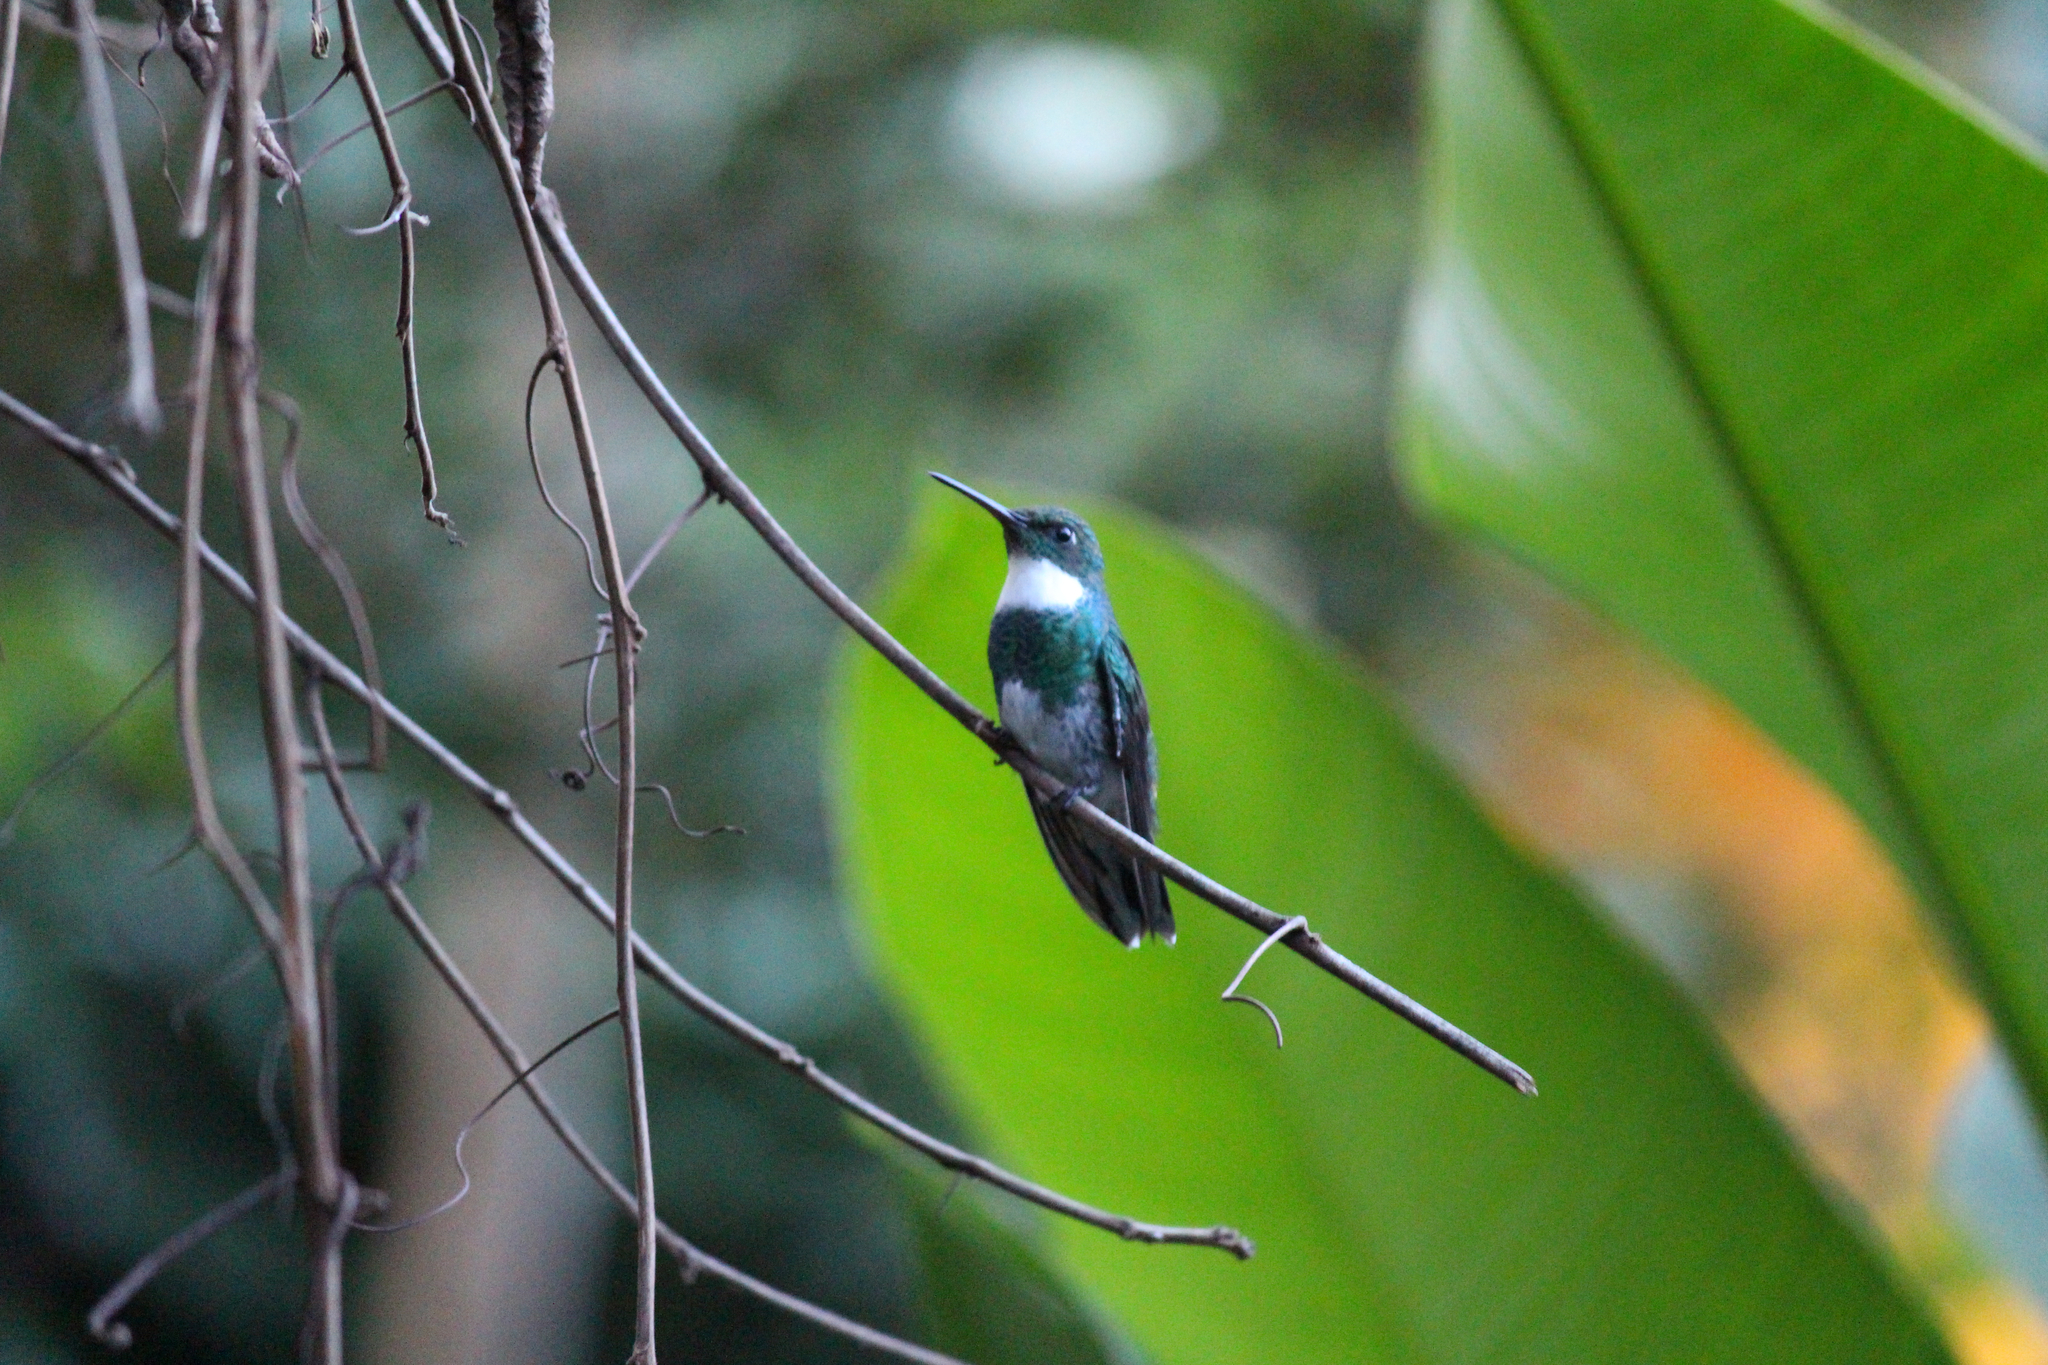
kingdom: Animalia
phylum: Chordata
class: Aves
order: Apodiformes
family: Trochilidae
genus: Leucochloris
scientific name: Leucochloris albicollis
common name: White-throated hummingbird
